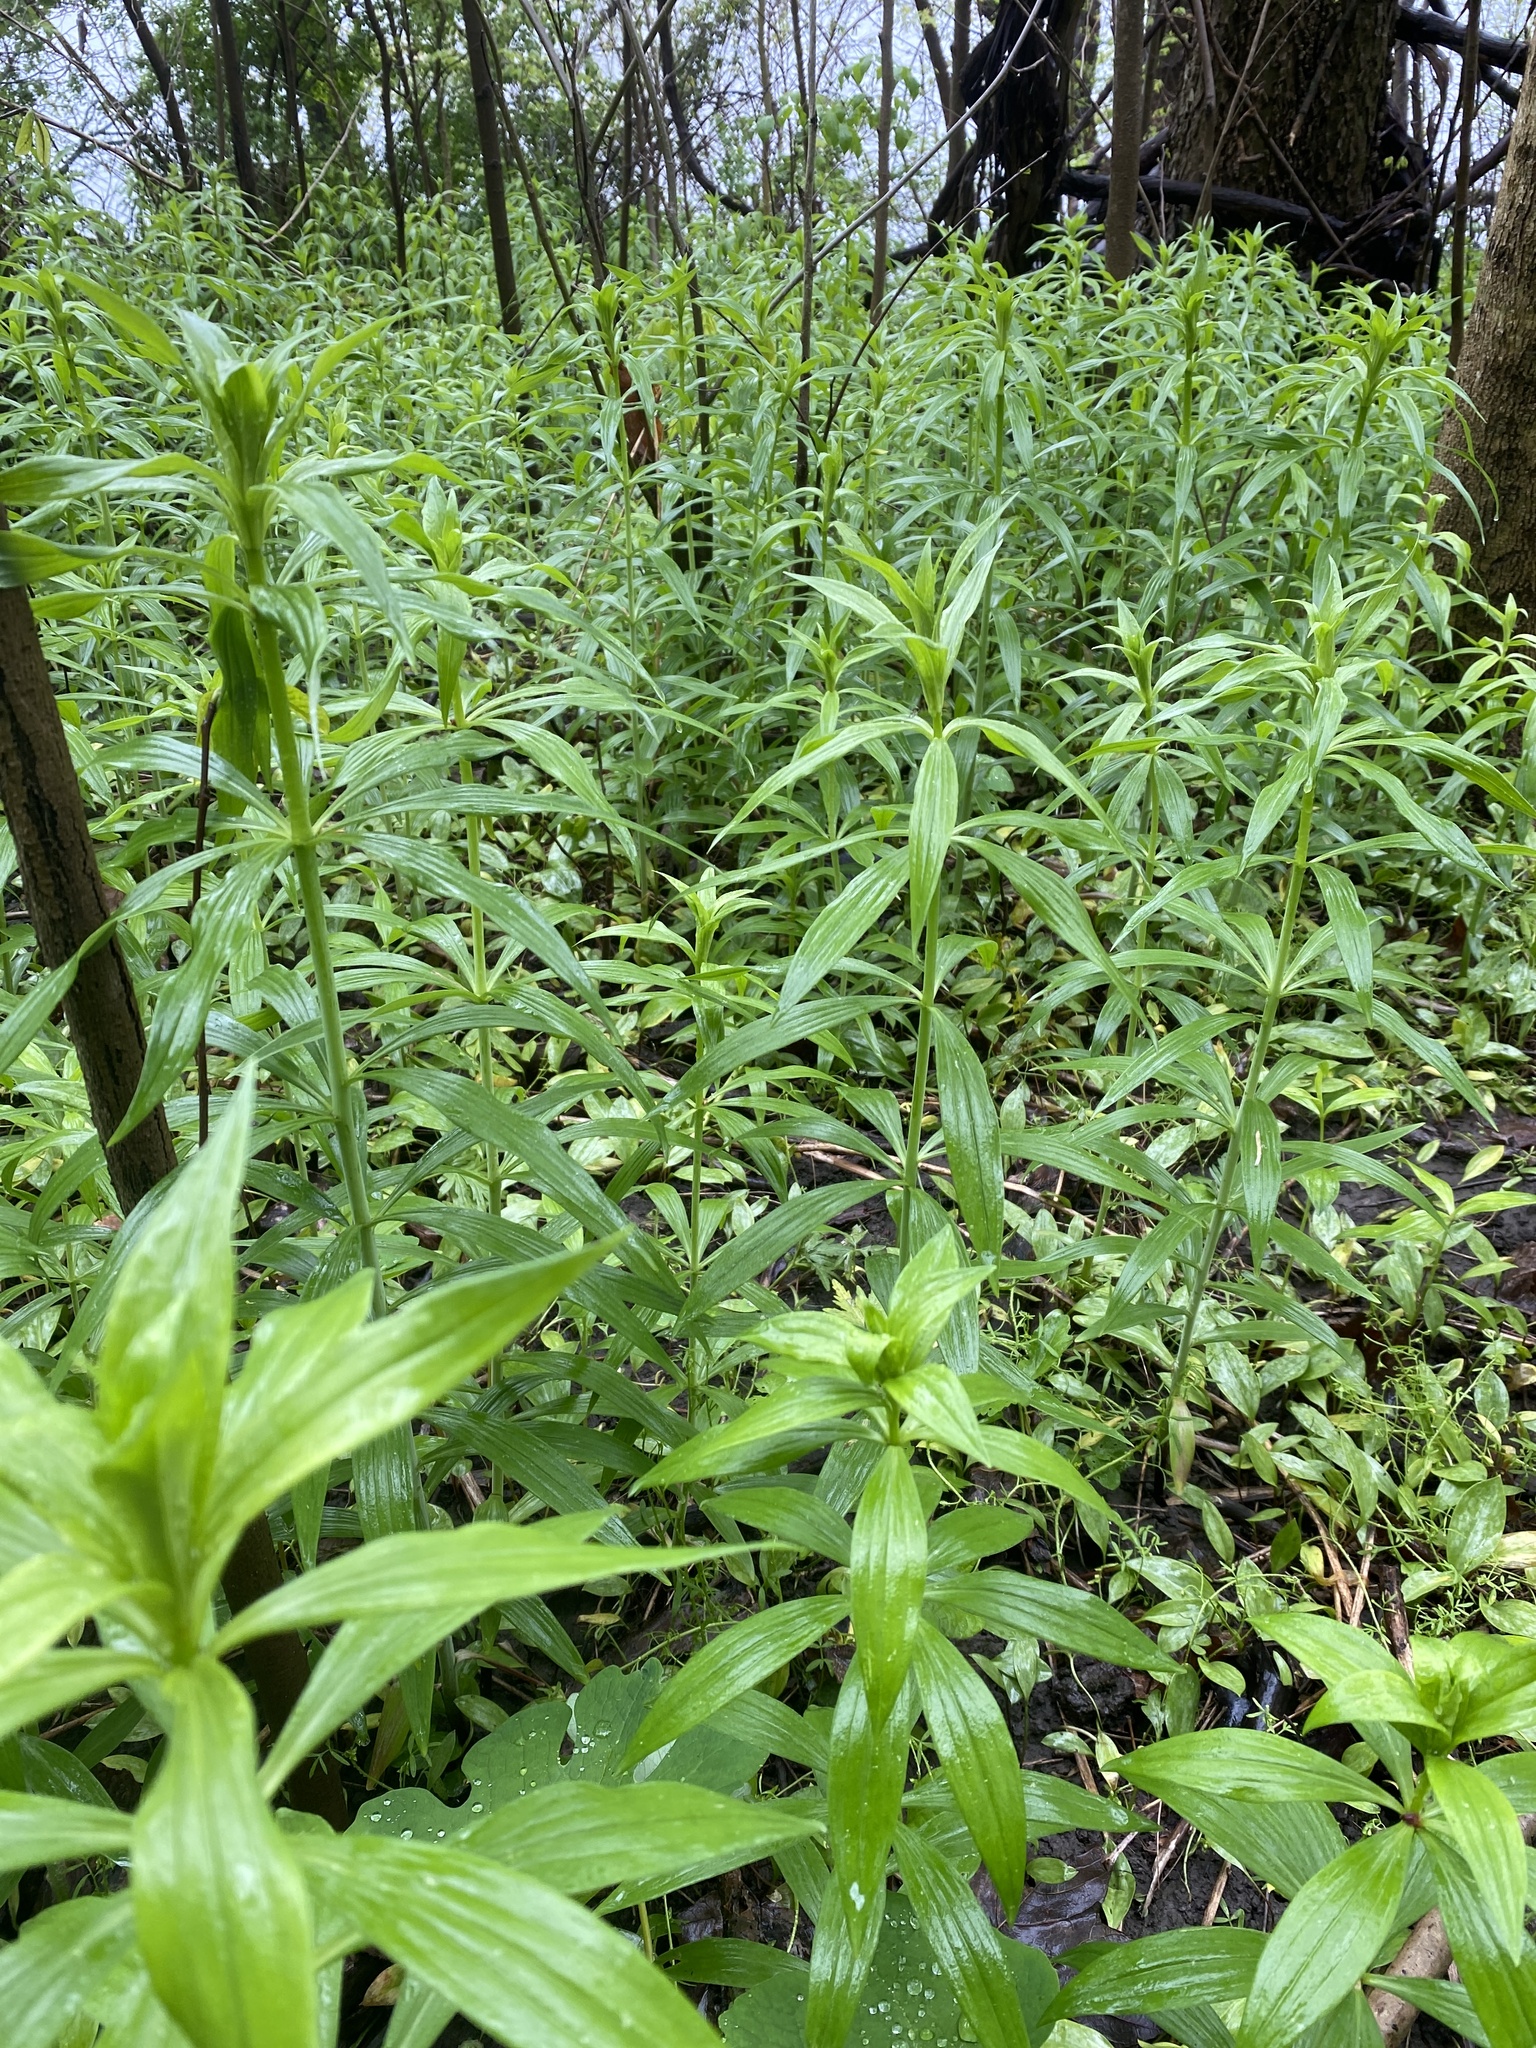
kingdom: Plantae
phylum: Tracheophyta
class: Liliopsida
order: Liliales
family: Liliaceae
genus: Lilium
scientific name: Lilium superbum
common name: American turk's-cap lily
